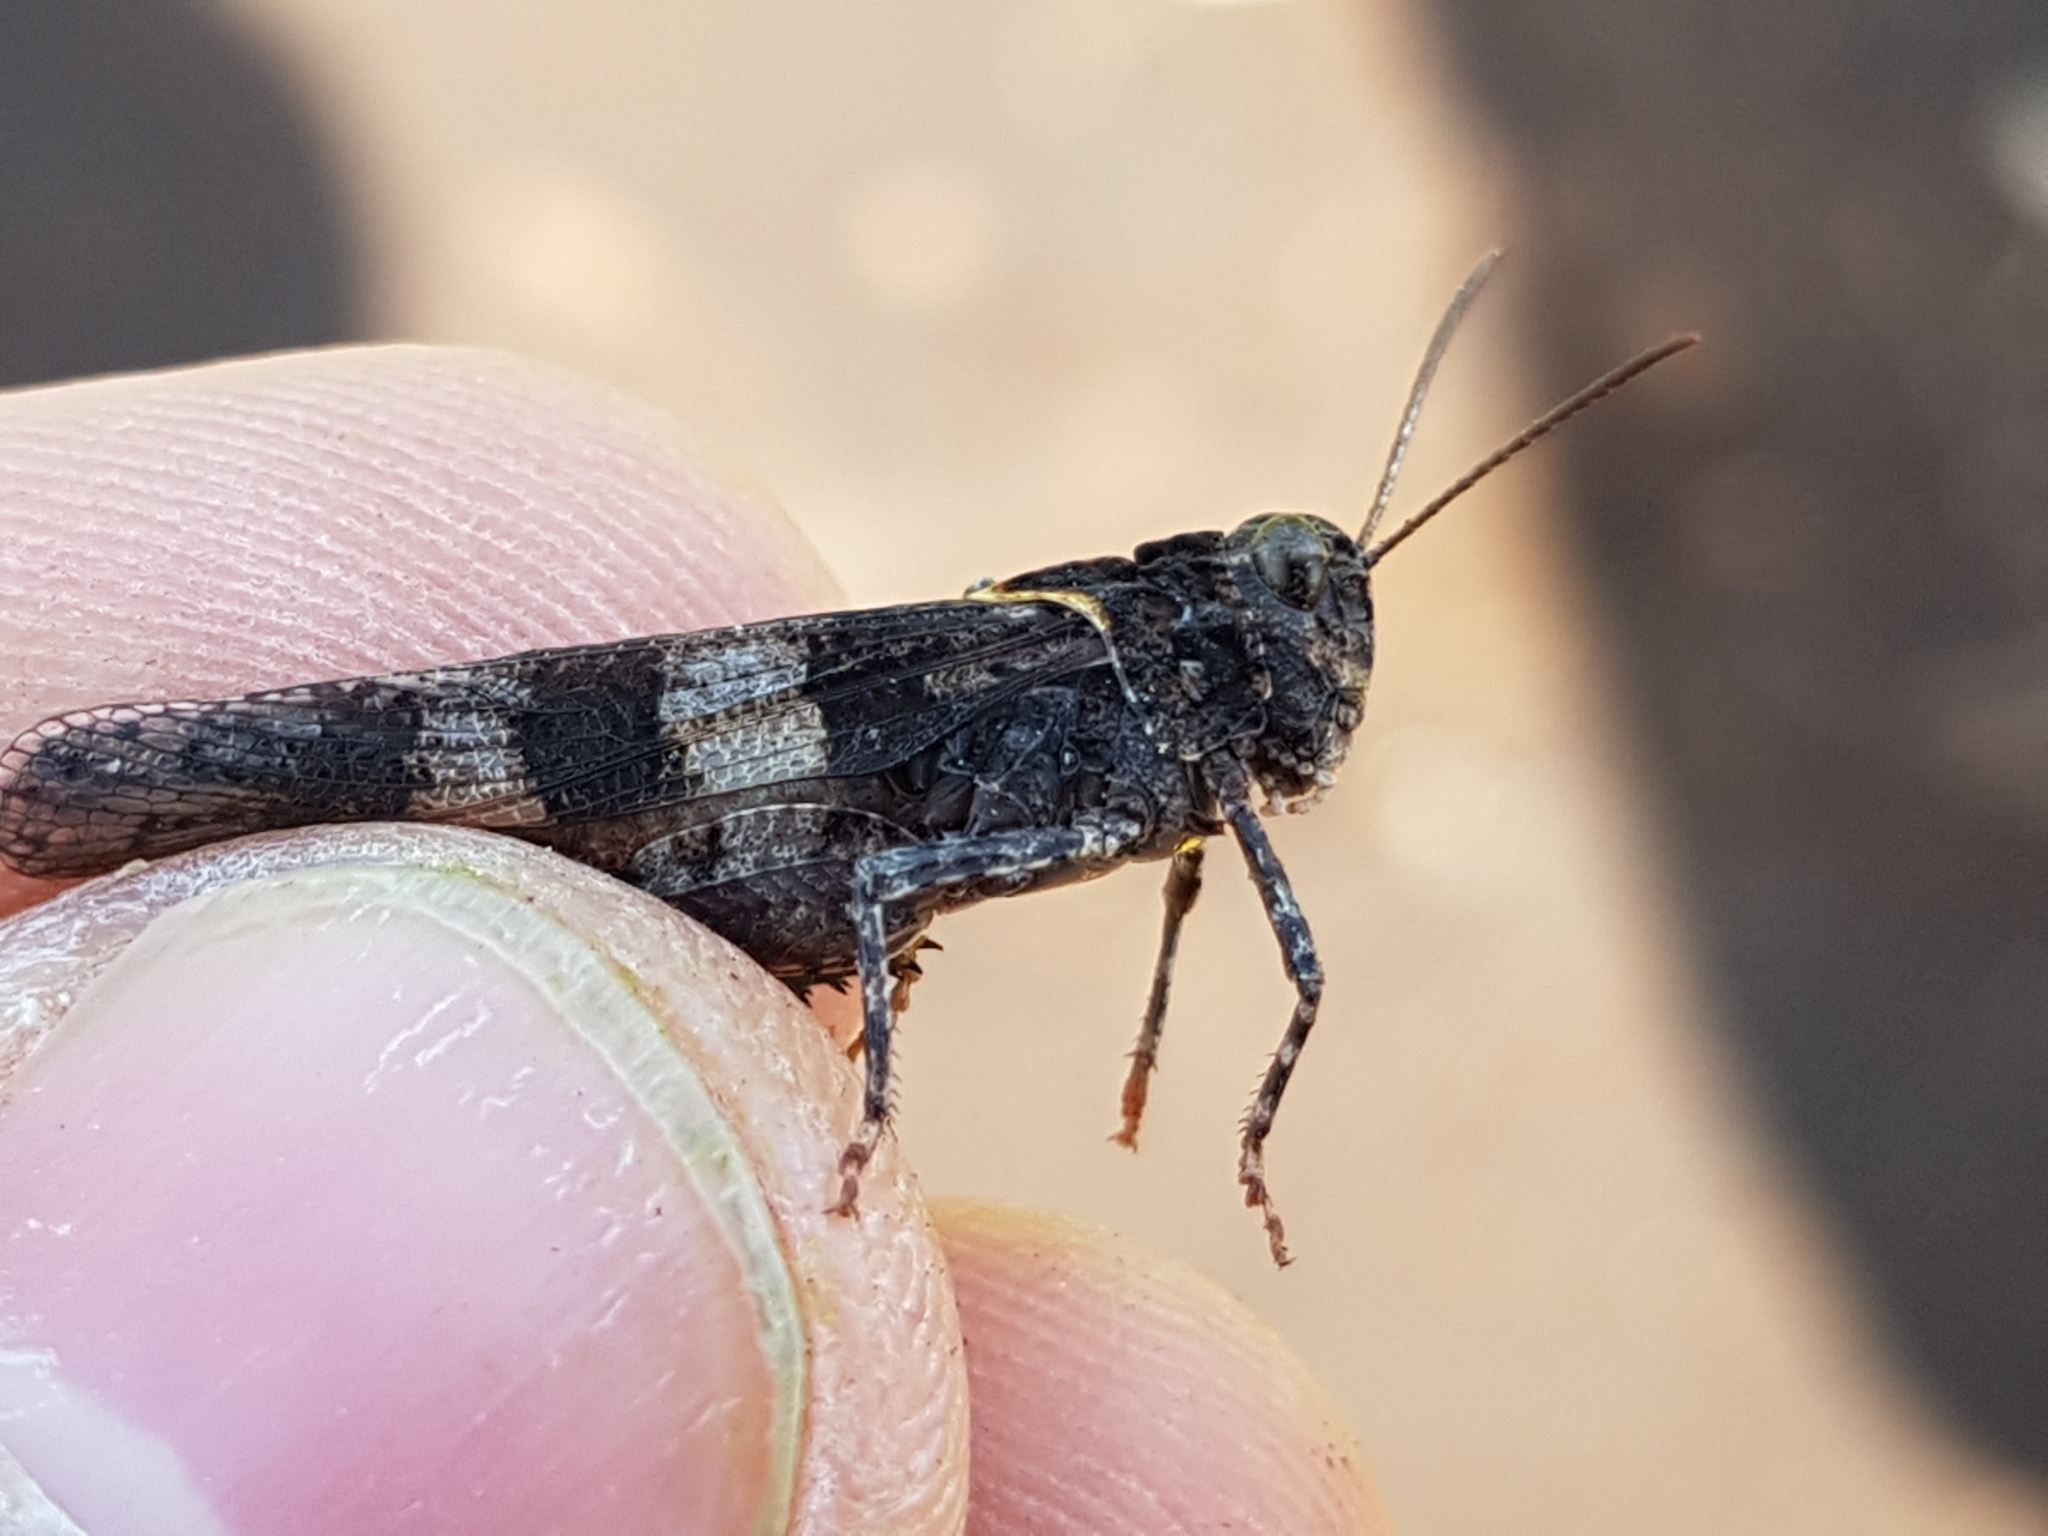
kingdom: Animalia
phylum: Arthropoda
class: Insecta
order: Orthoptera
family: Acrididae
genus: Oedipoda
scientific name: Oedipoda caerulescens
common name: Blue-winged grasshopper
